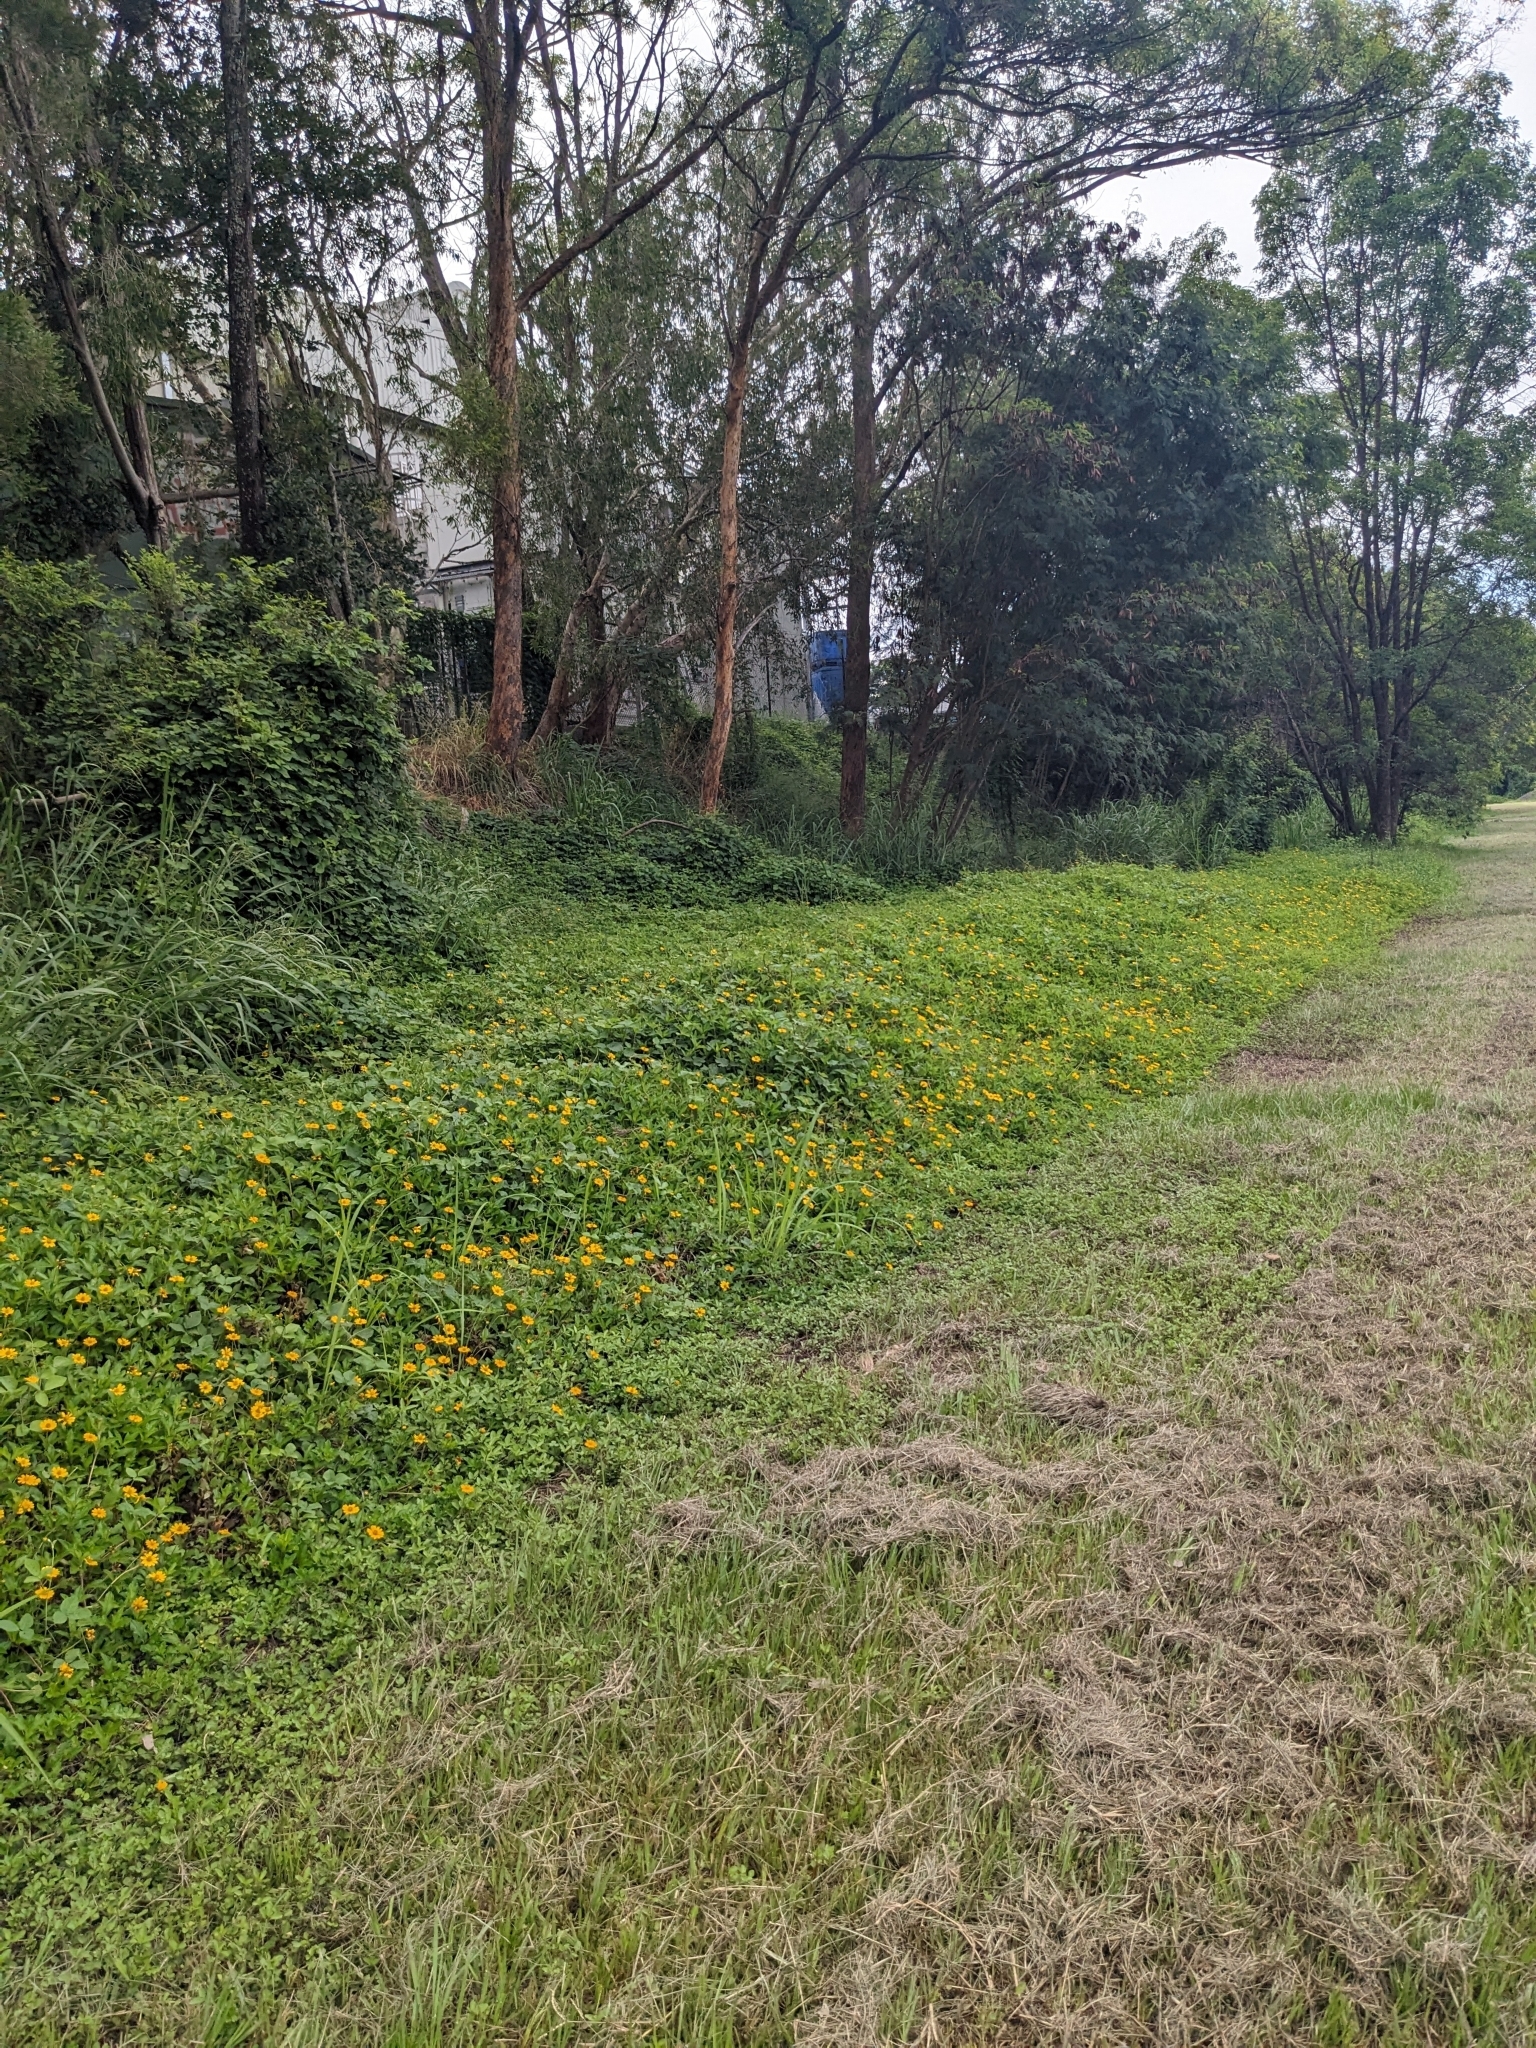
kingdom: Plantae
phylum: Tracheophyta
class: Magnoliopsida
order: Asterales
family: Asteraceae
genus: Sphagneticola
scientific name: Sphagneticola trilobata
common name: Bay biscayne creeping-oxeye
